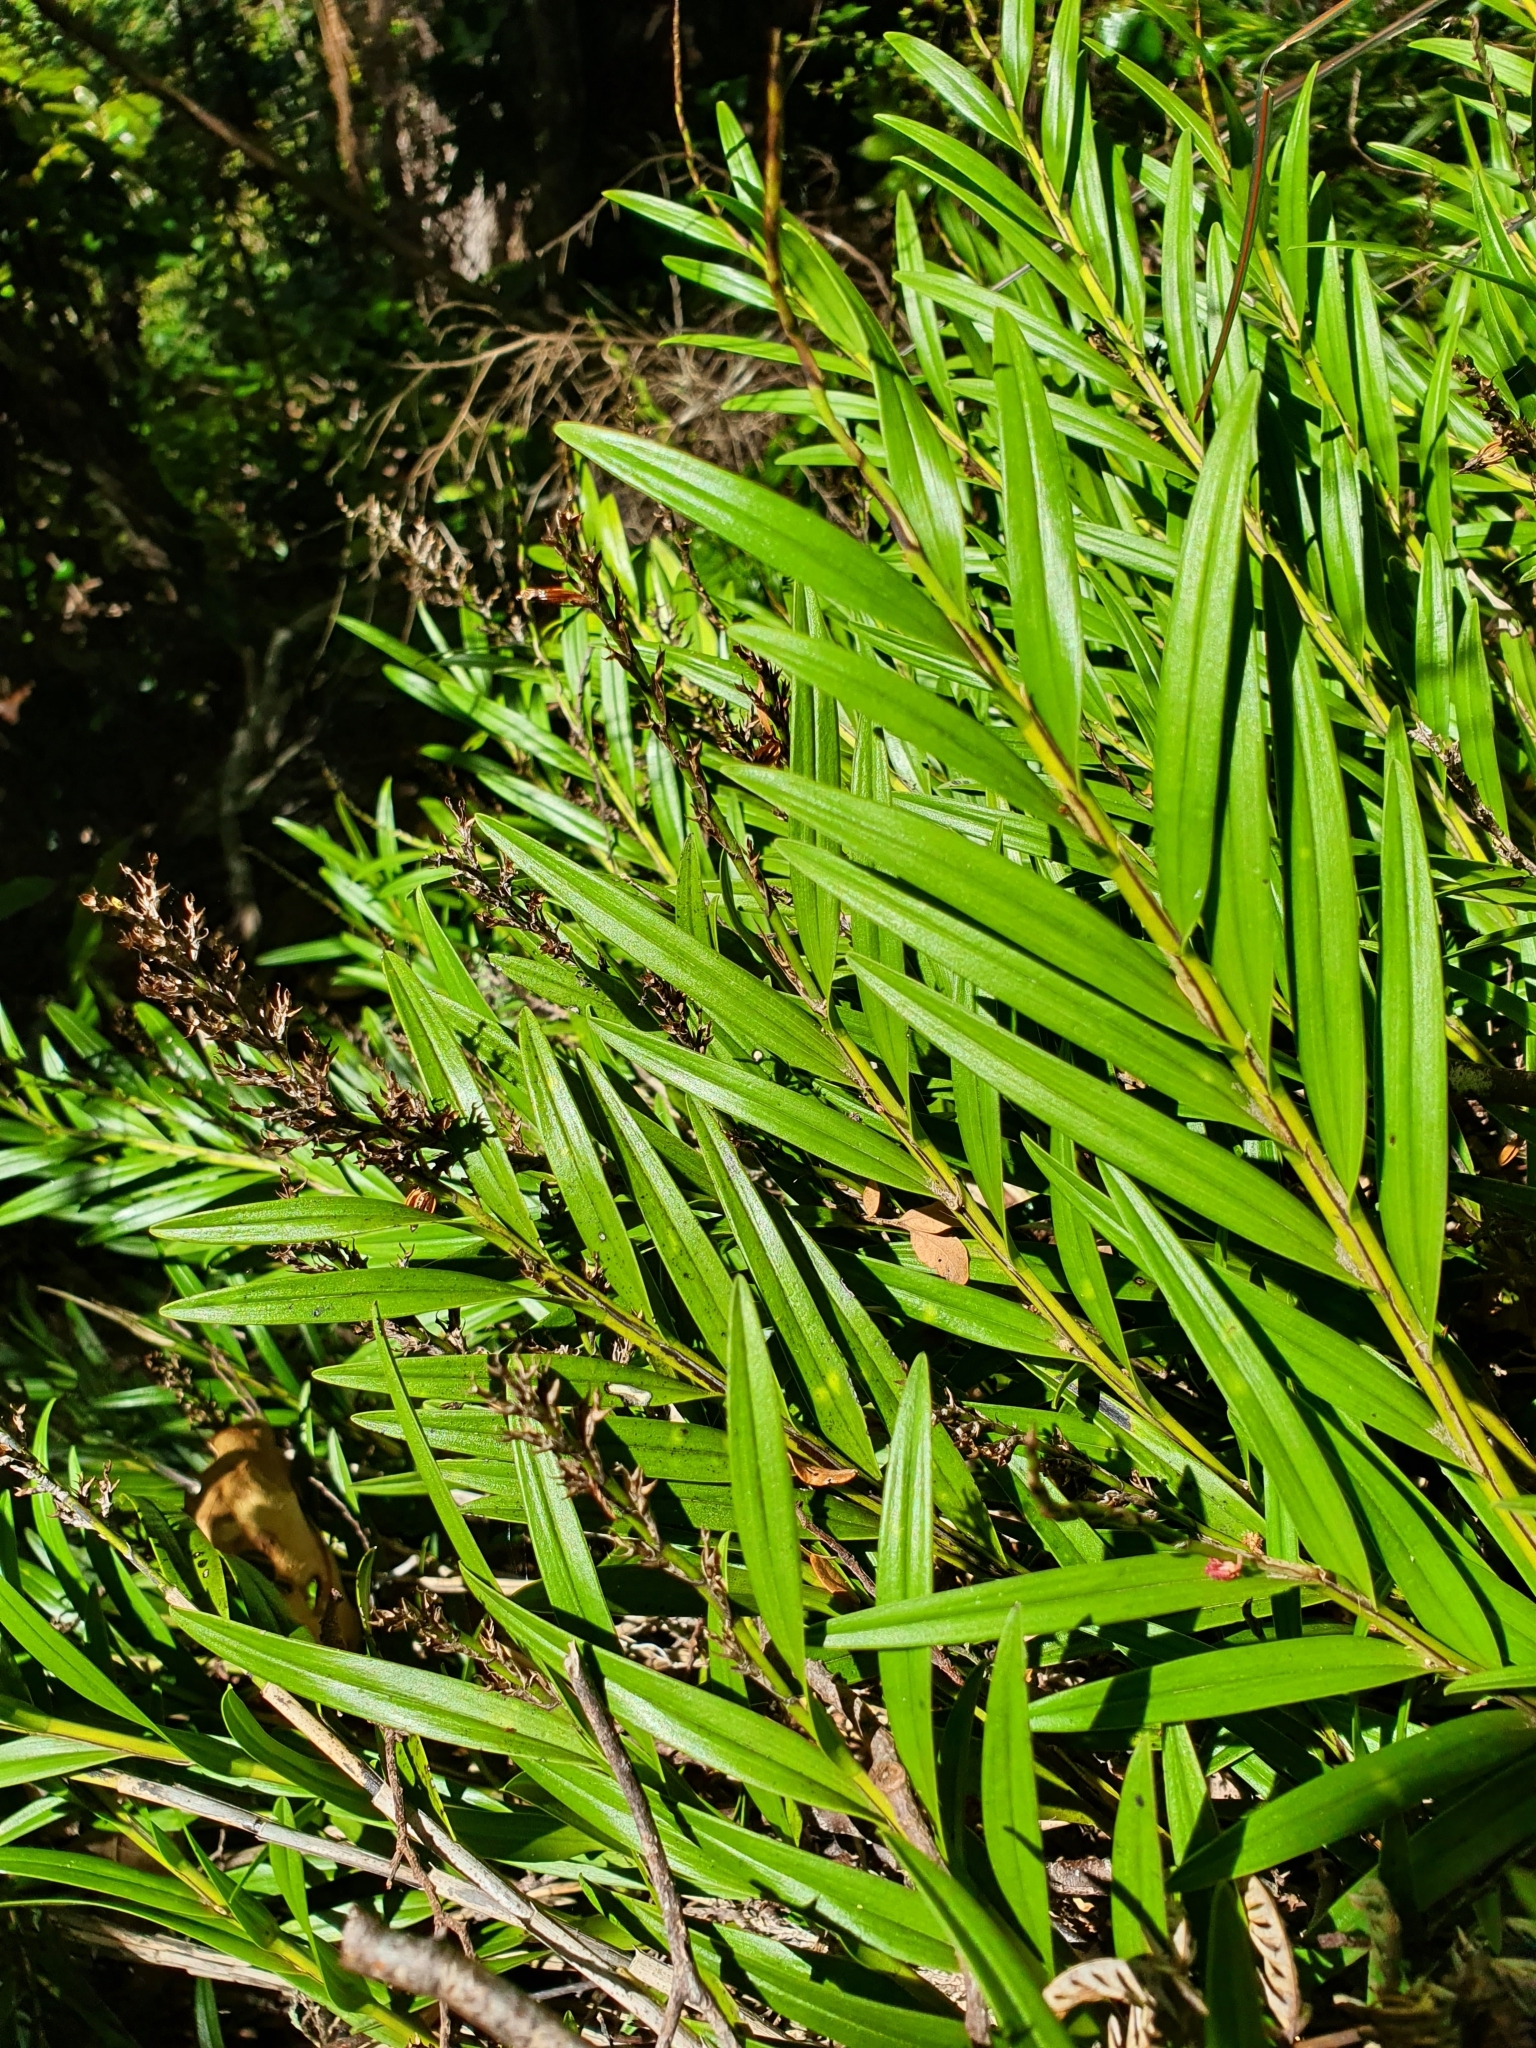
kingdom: Plantae
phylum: Tracheophyta
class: Liliopsida
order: Asparagales
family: Orchidaceae
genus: Earina
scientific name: Earina autumnalis
